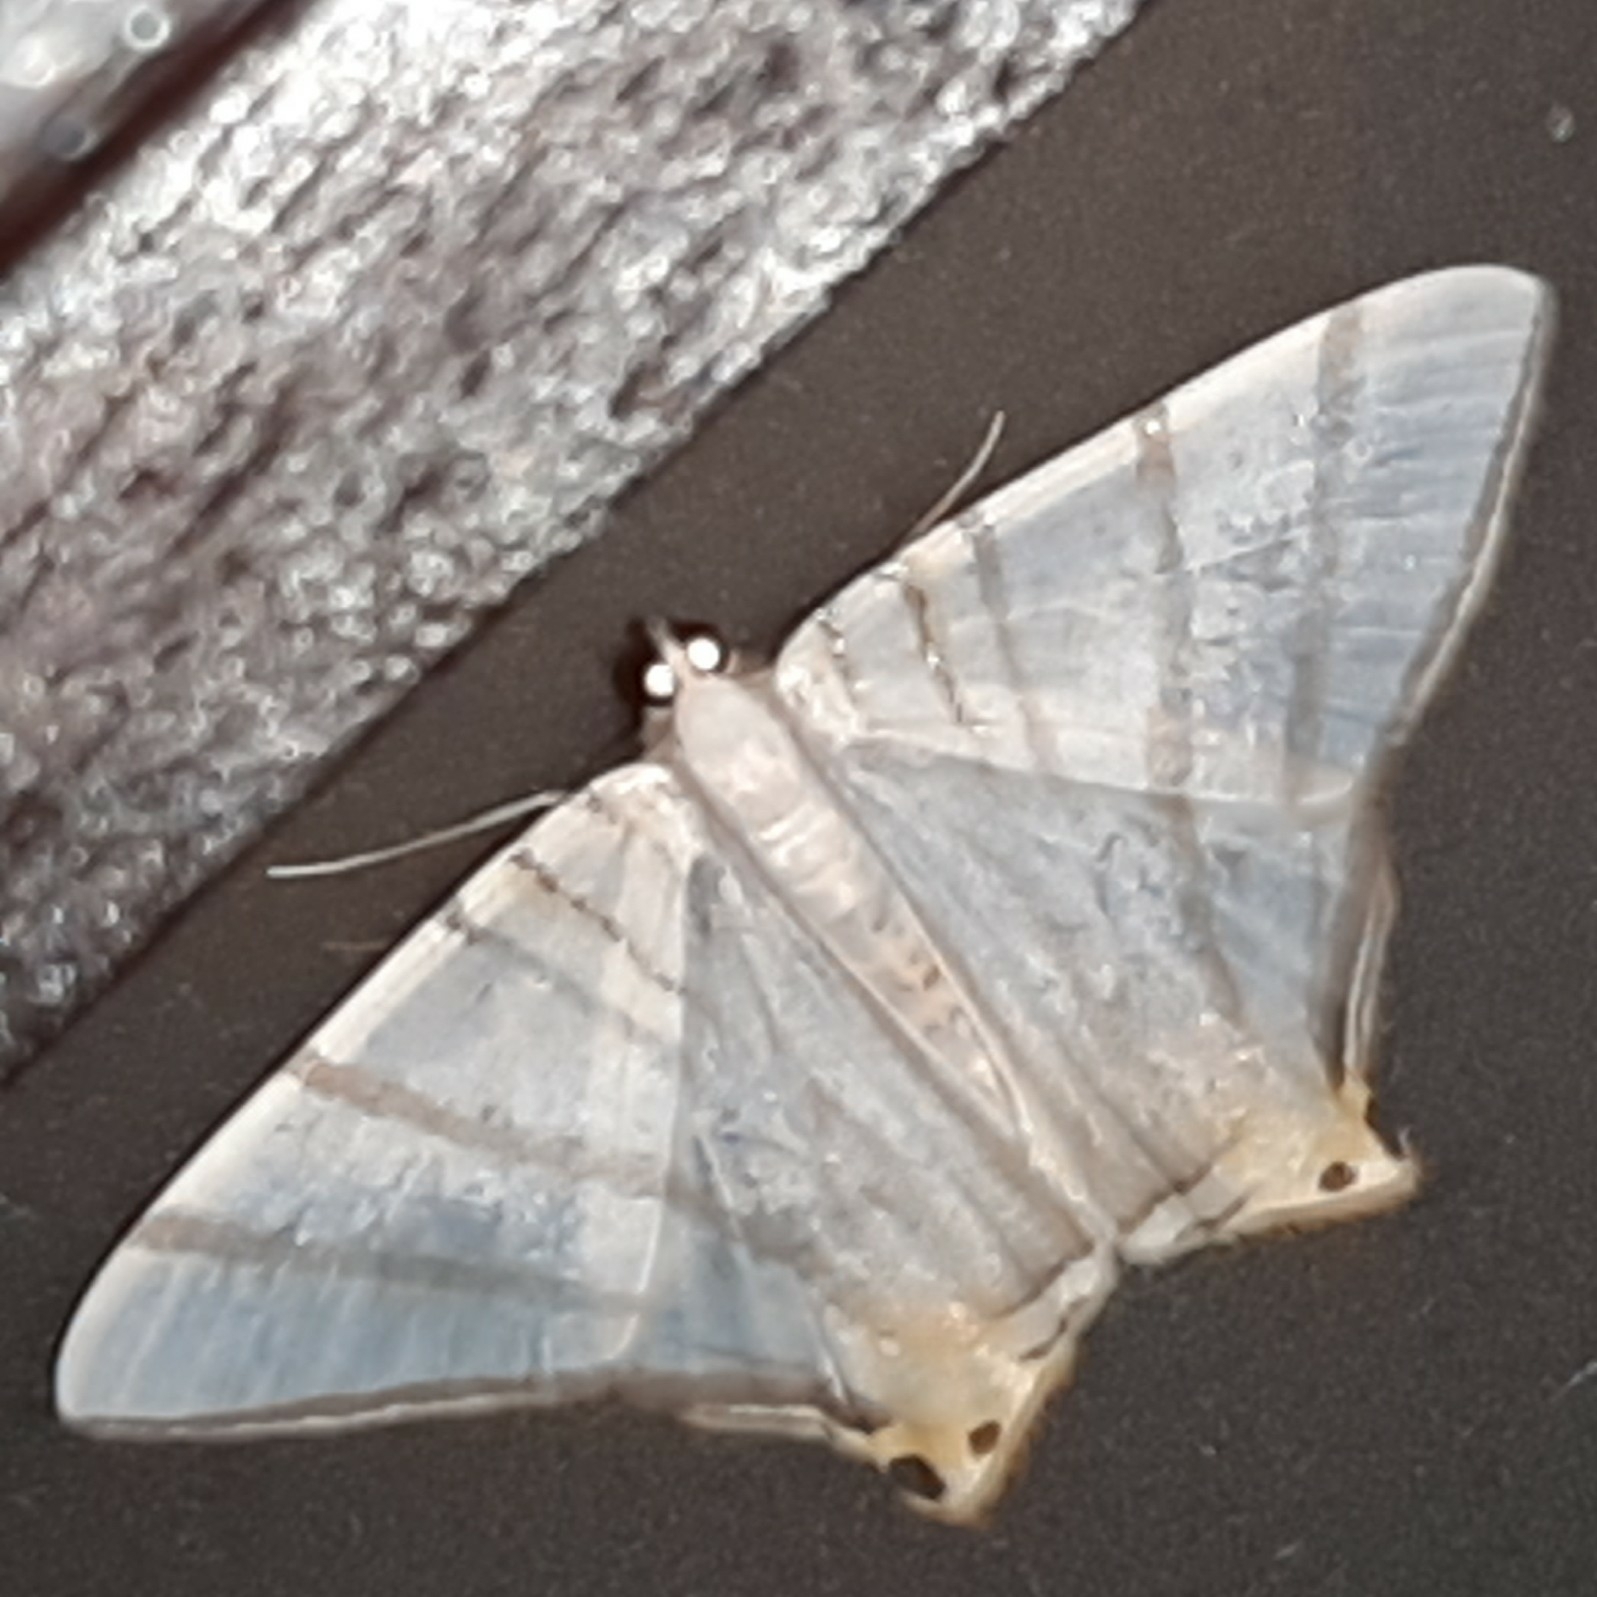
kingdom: Animalia
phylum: Arthropoda
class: Insecta
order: Lepidoptera
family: Geometridae
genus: Phrygionis
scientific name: Phrygionis platinata
